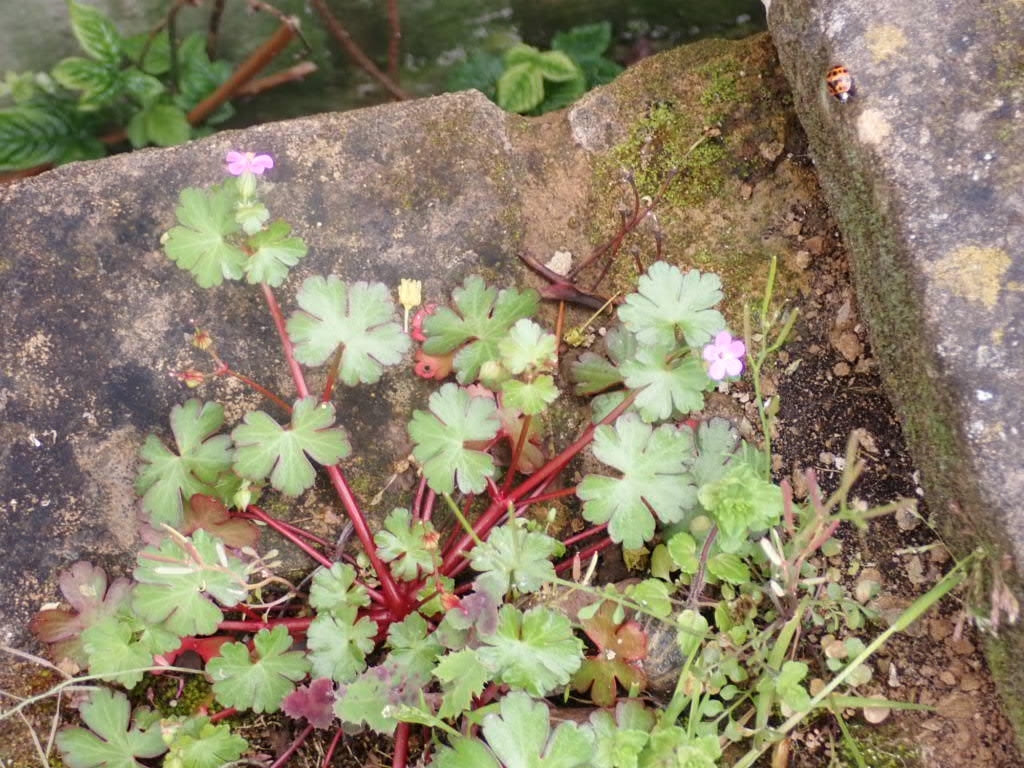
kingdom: Plantae
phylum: Tracheophyta
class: Magnoliopsida
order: Geraniales
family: Geraniaceae
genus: Geranium
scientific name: Geranium lucidum
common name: Shining crane's-bill
